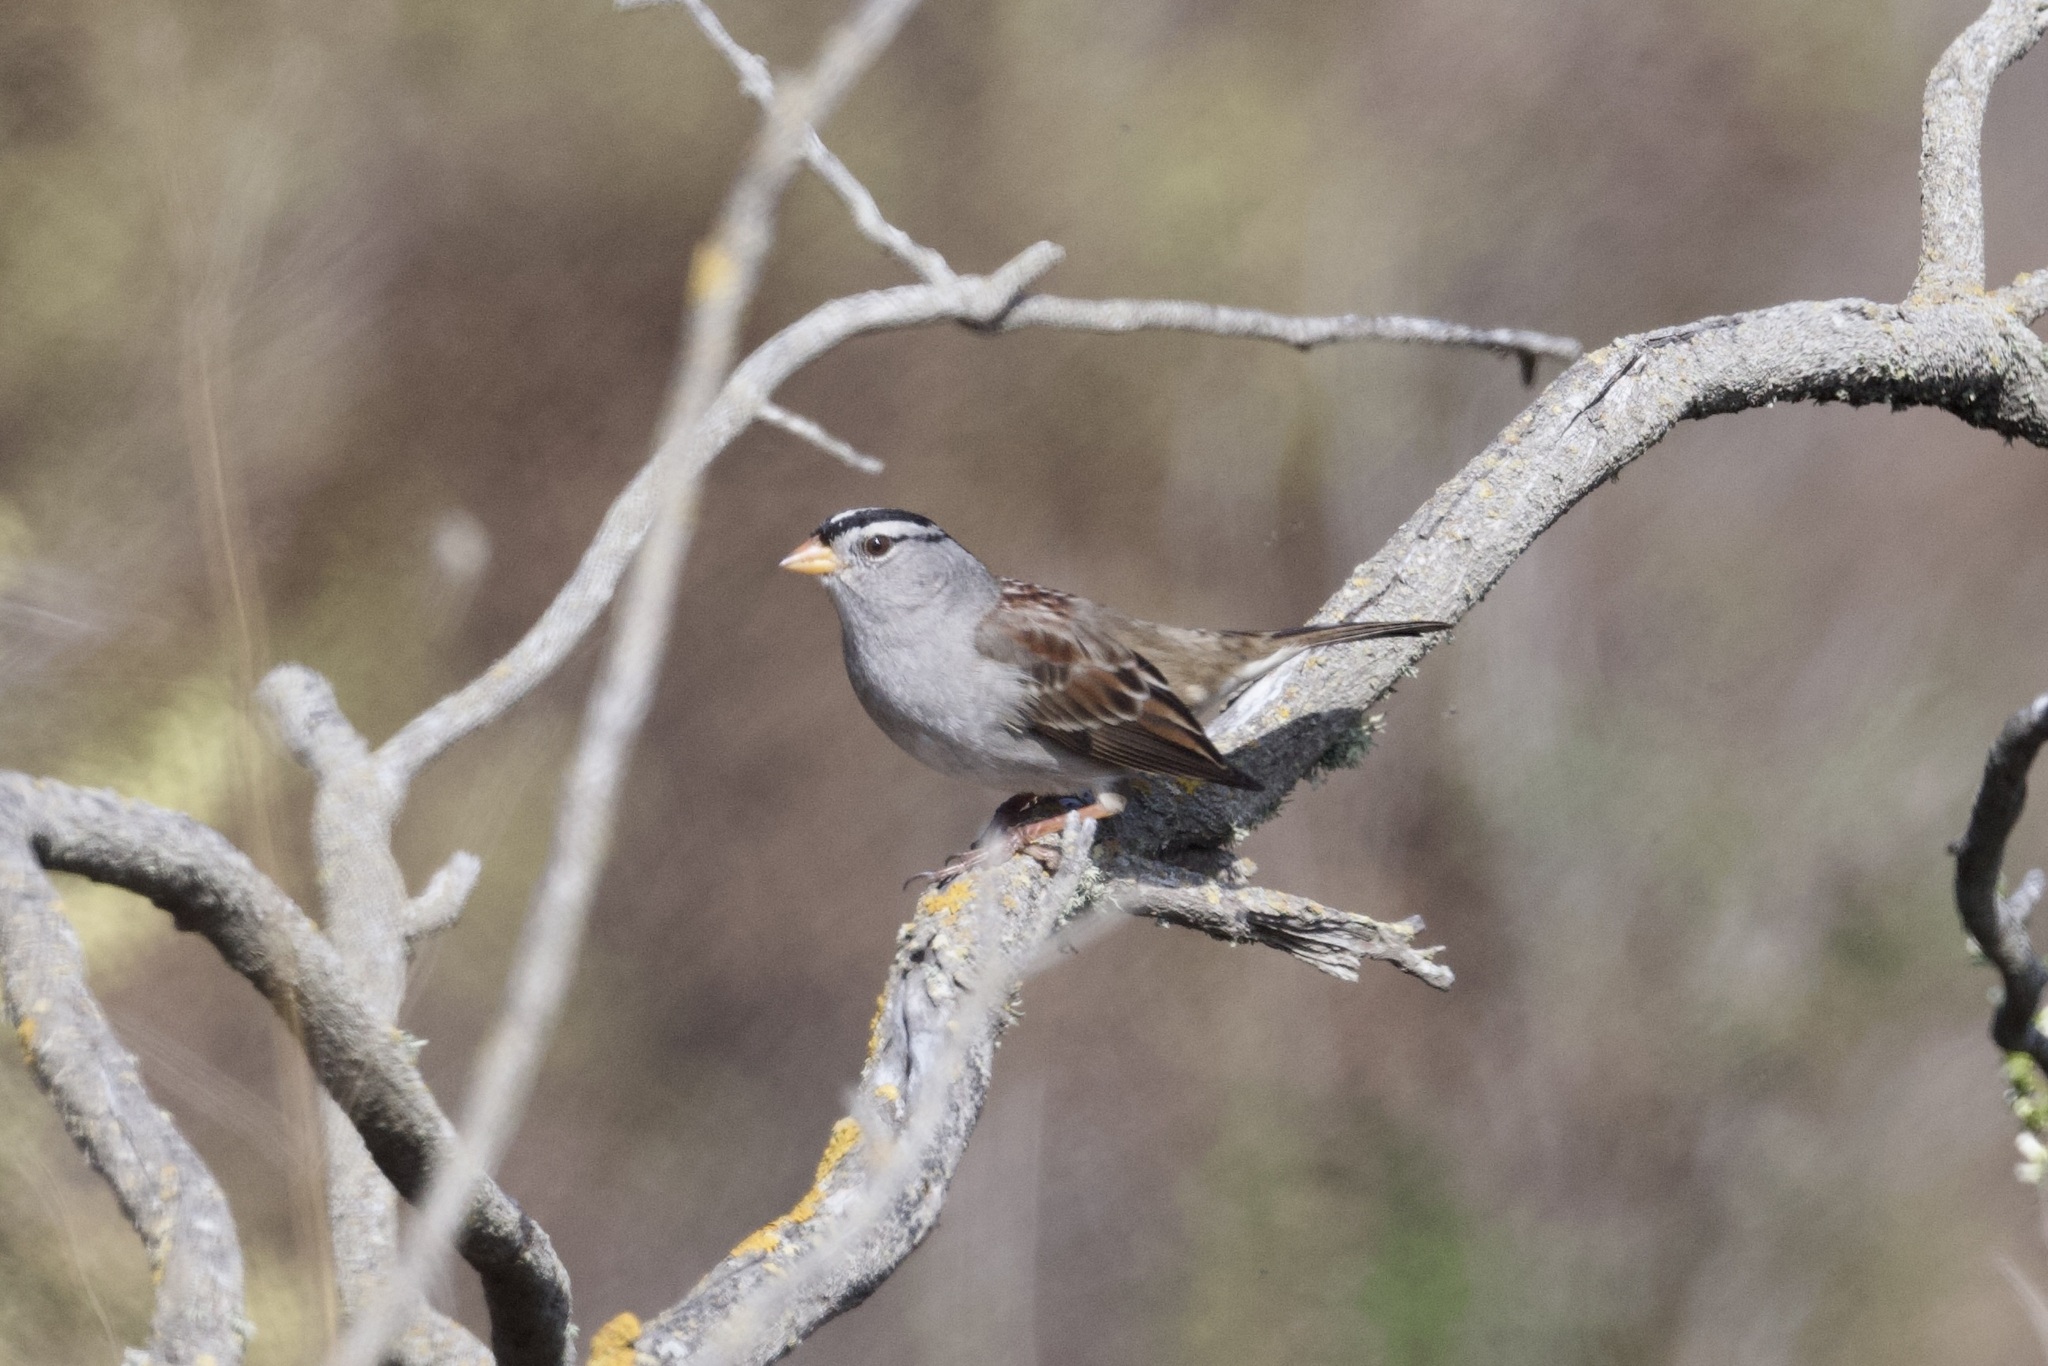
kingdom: Animalia
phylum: Chordata
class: Aves
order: Passeriformes
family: Passerellidae
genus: Zonotrichia
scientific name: Zonotrichia leucophrys
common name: White-crowned sparrow
